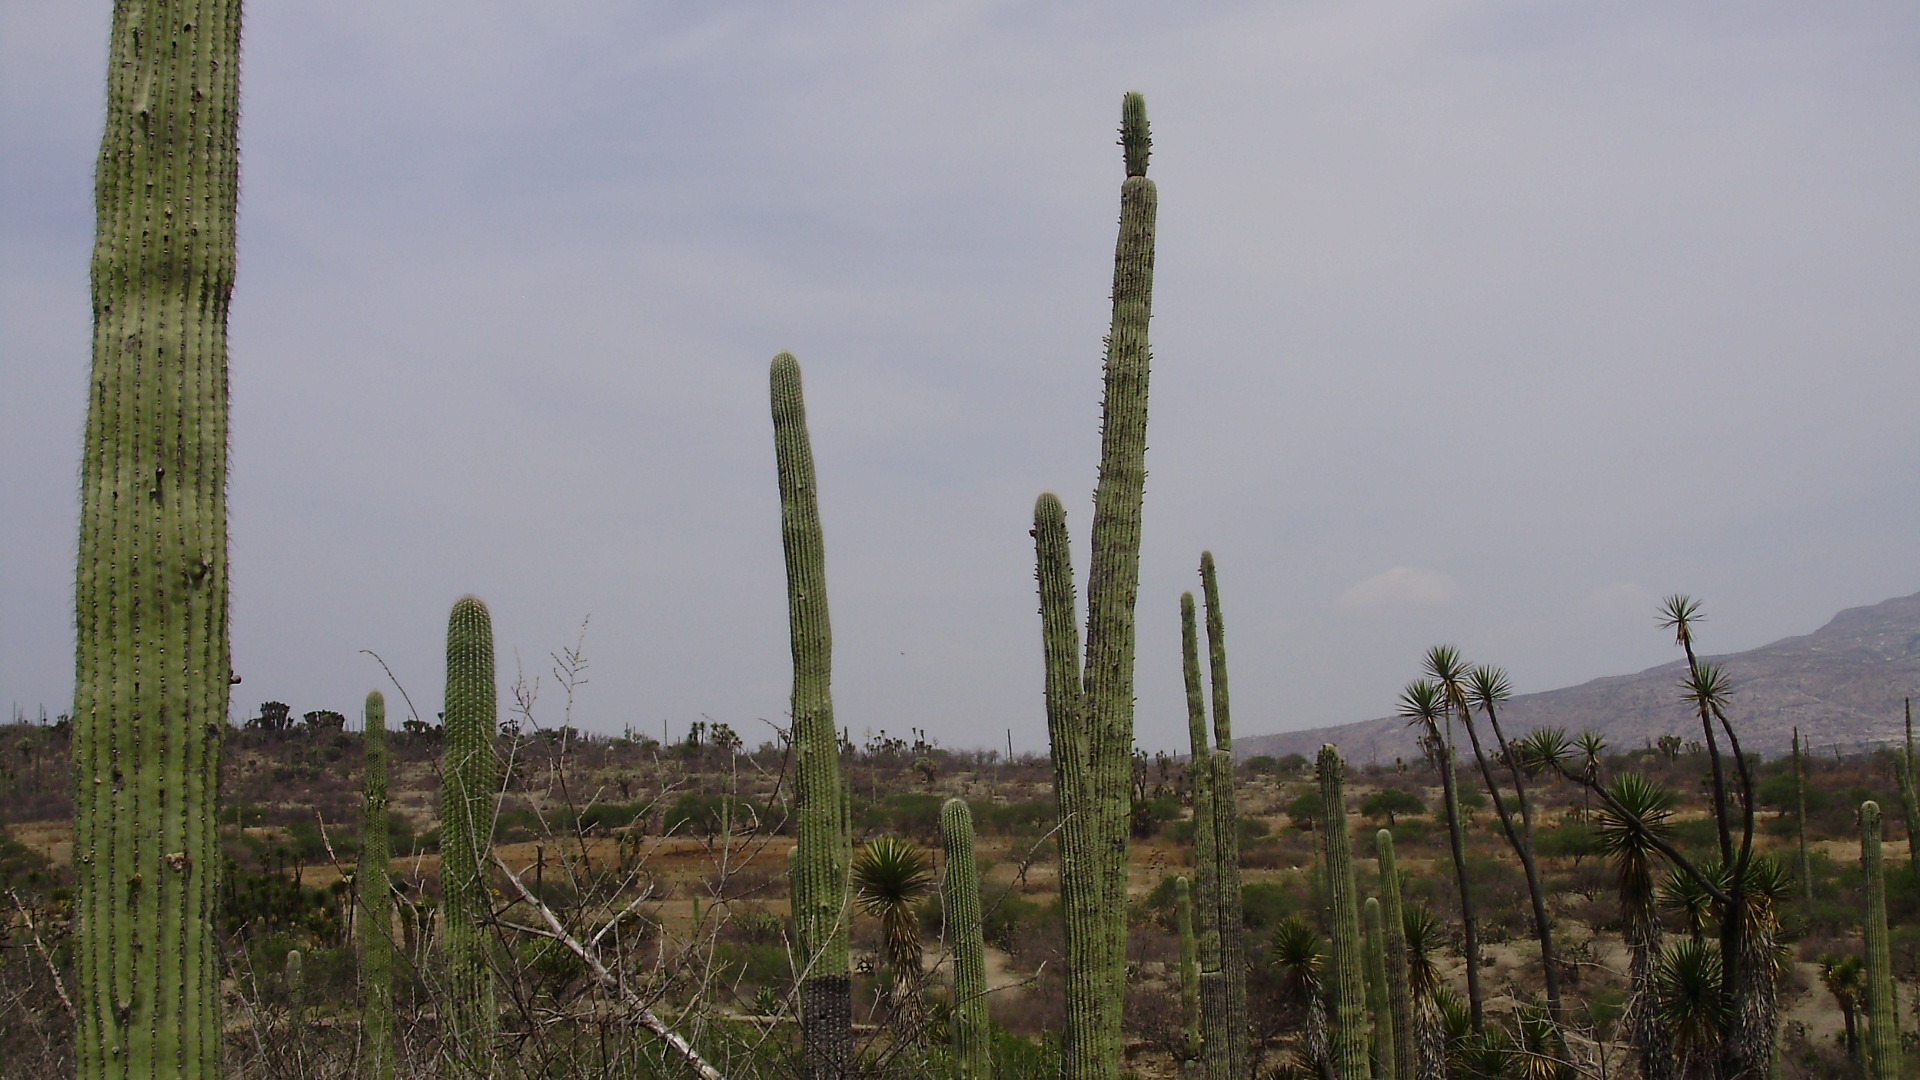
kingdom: Plantae
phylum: Tracheophyta
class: Magnoliopsida
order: Caryophyllales
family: Cactaceae
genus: Cephalocereus
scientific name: Cephalocereus mezcalaensis
